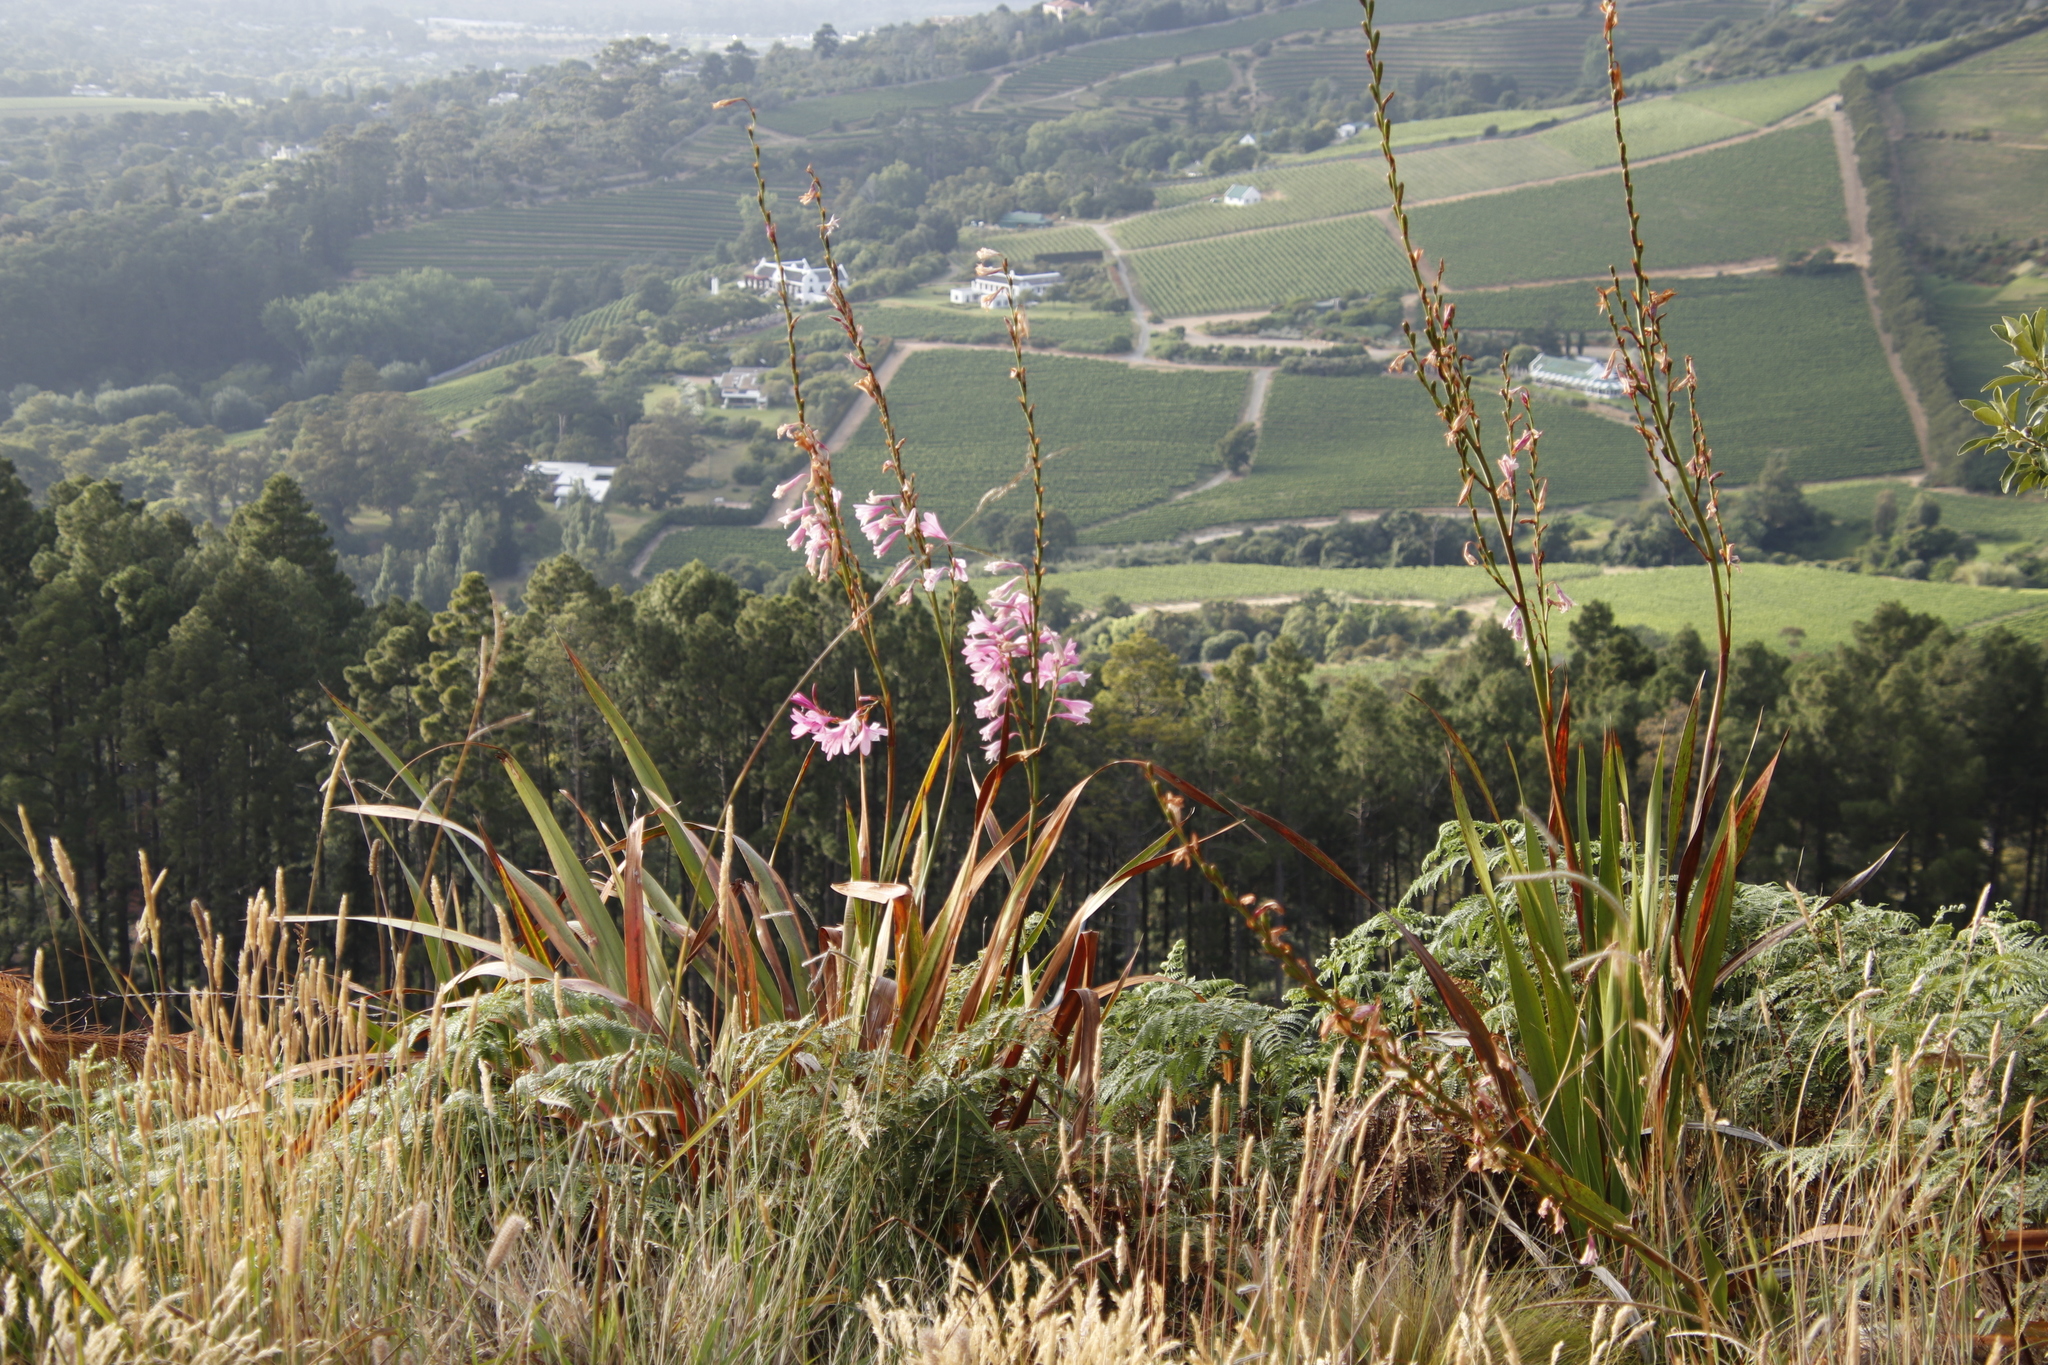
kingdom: Plantae
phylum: Tracheophyta
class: Liliopsida
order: Asparagales
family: Iridaceae
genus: Watsonia
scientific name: Watsonia borbonica
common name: Bugle-lily
